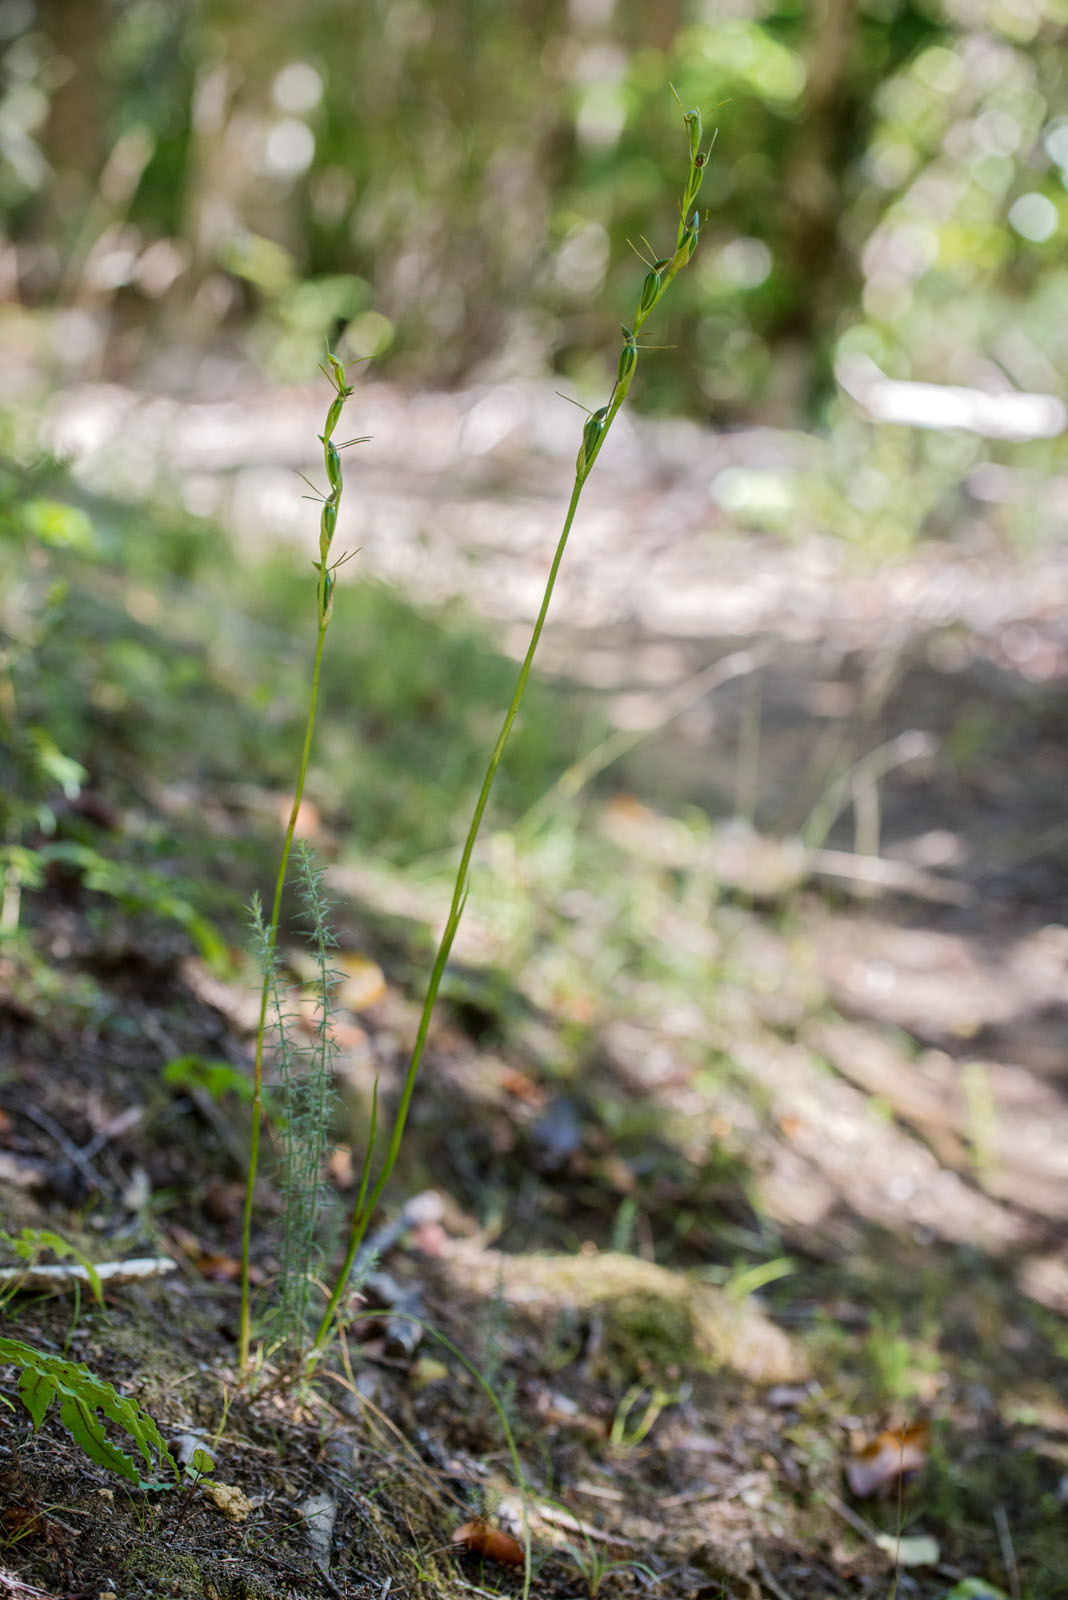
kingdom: Plantae
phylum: Tracheophyta
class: Liliopsida
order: Asparagales
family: Orchidaceae
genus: Orthoceras
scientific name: Orthoceras novae-zeelandiae
